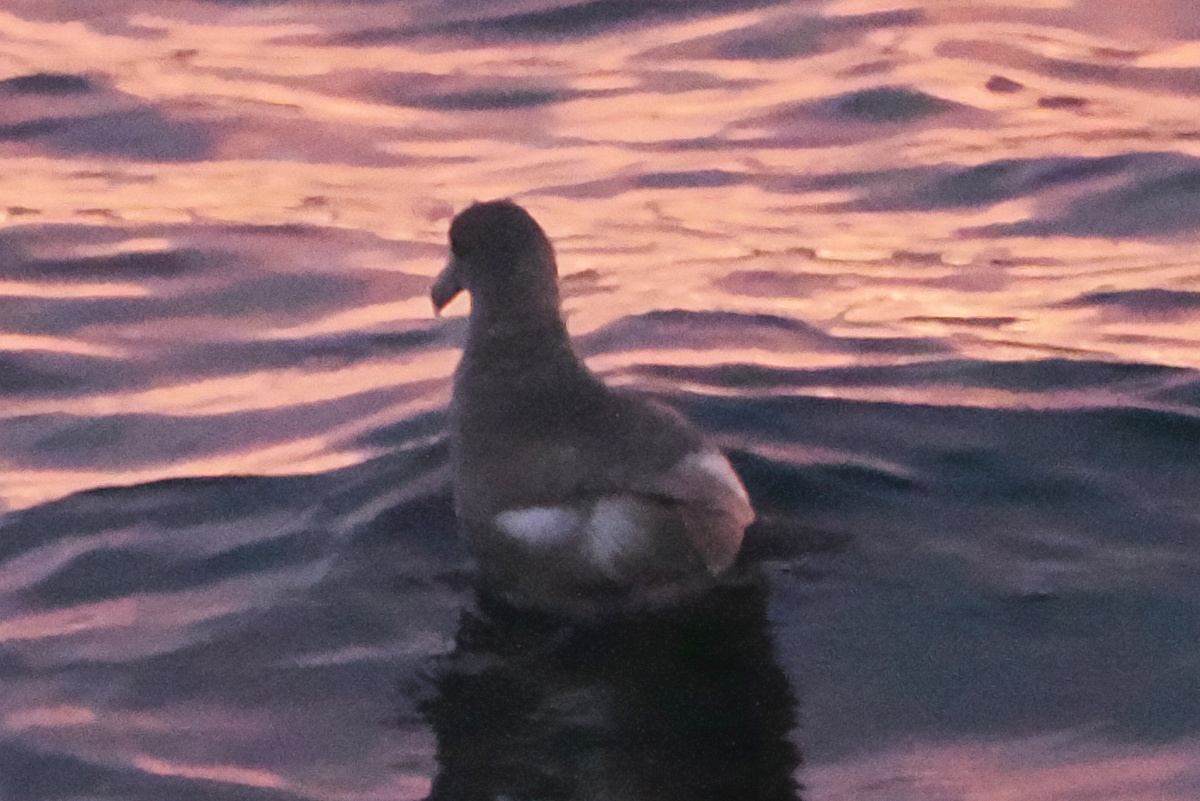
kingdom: Animalia
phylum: Chordata
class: Aves
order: Procellariiformes
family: Procellariidae
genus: Fulmarus
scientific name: Fulmarus glacialis
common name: Northern fulmar
